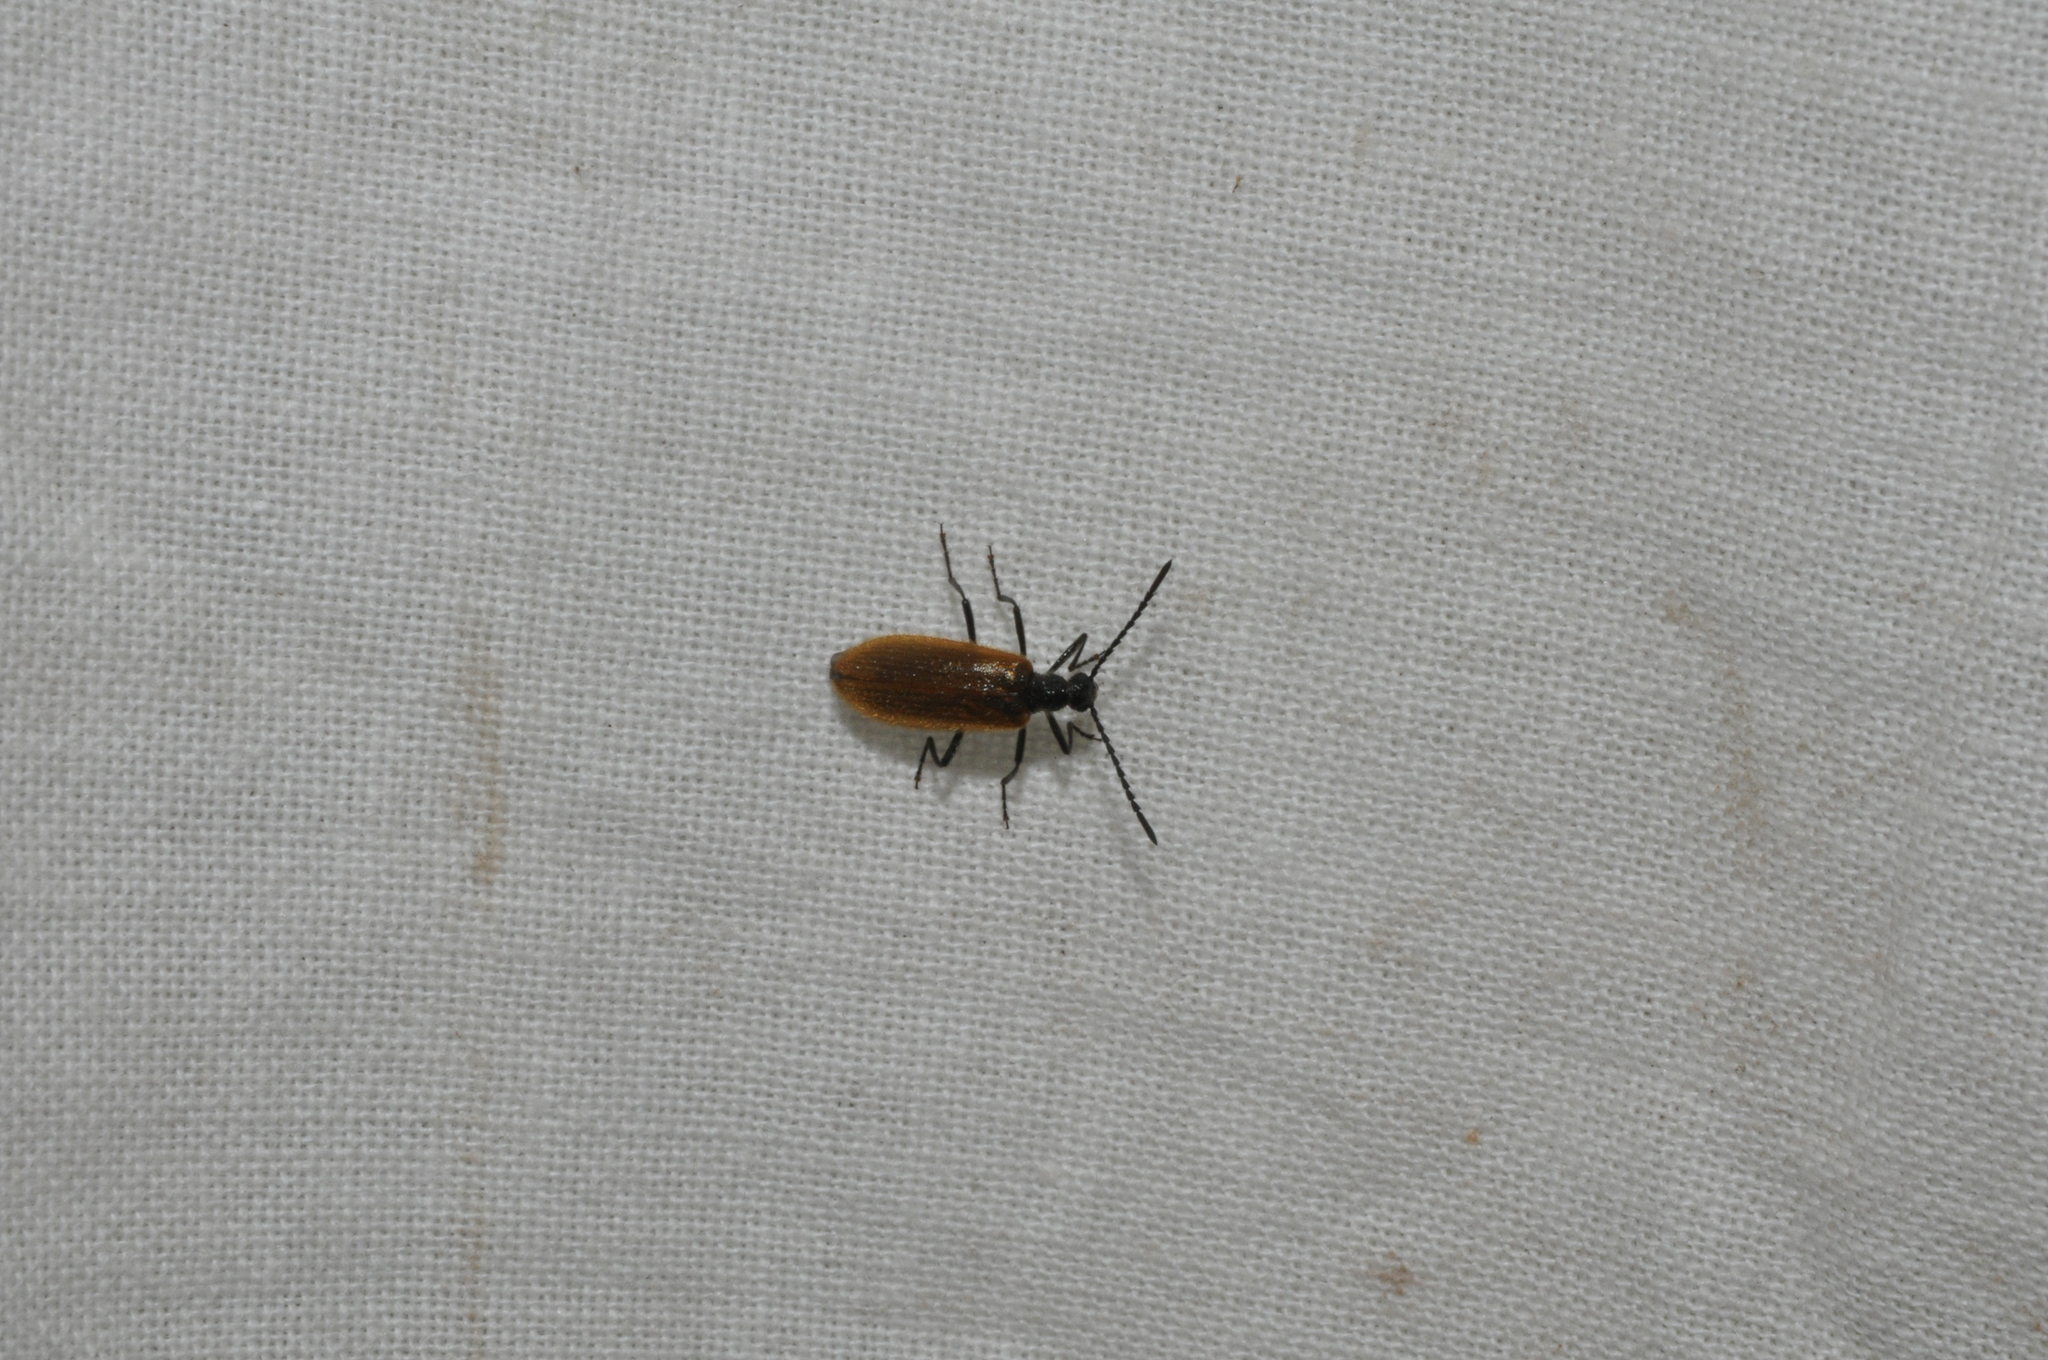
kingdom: Animalia
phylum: Arthropoda
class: Insecta
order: Coleoptera
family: Tenebrionidae
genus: Lagria
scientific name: Lagria hirta
